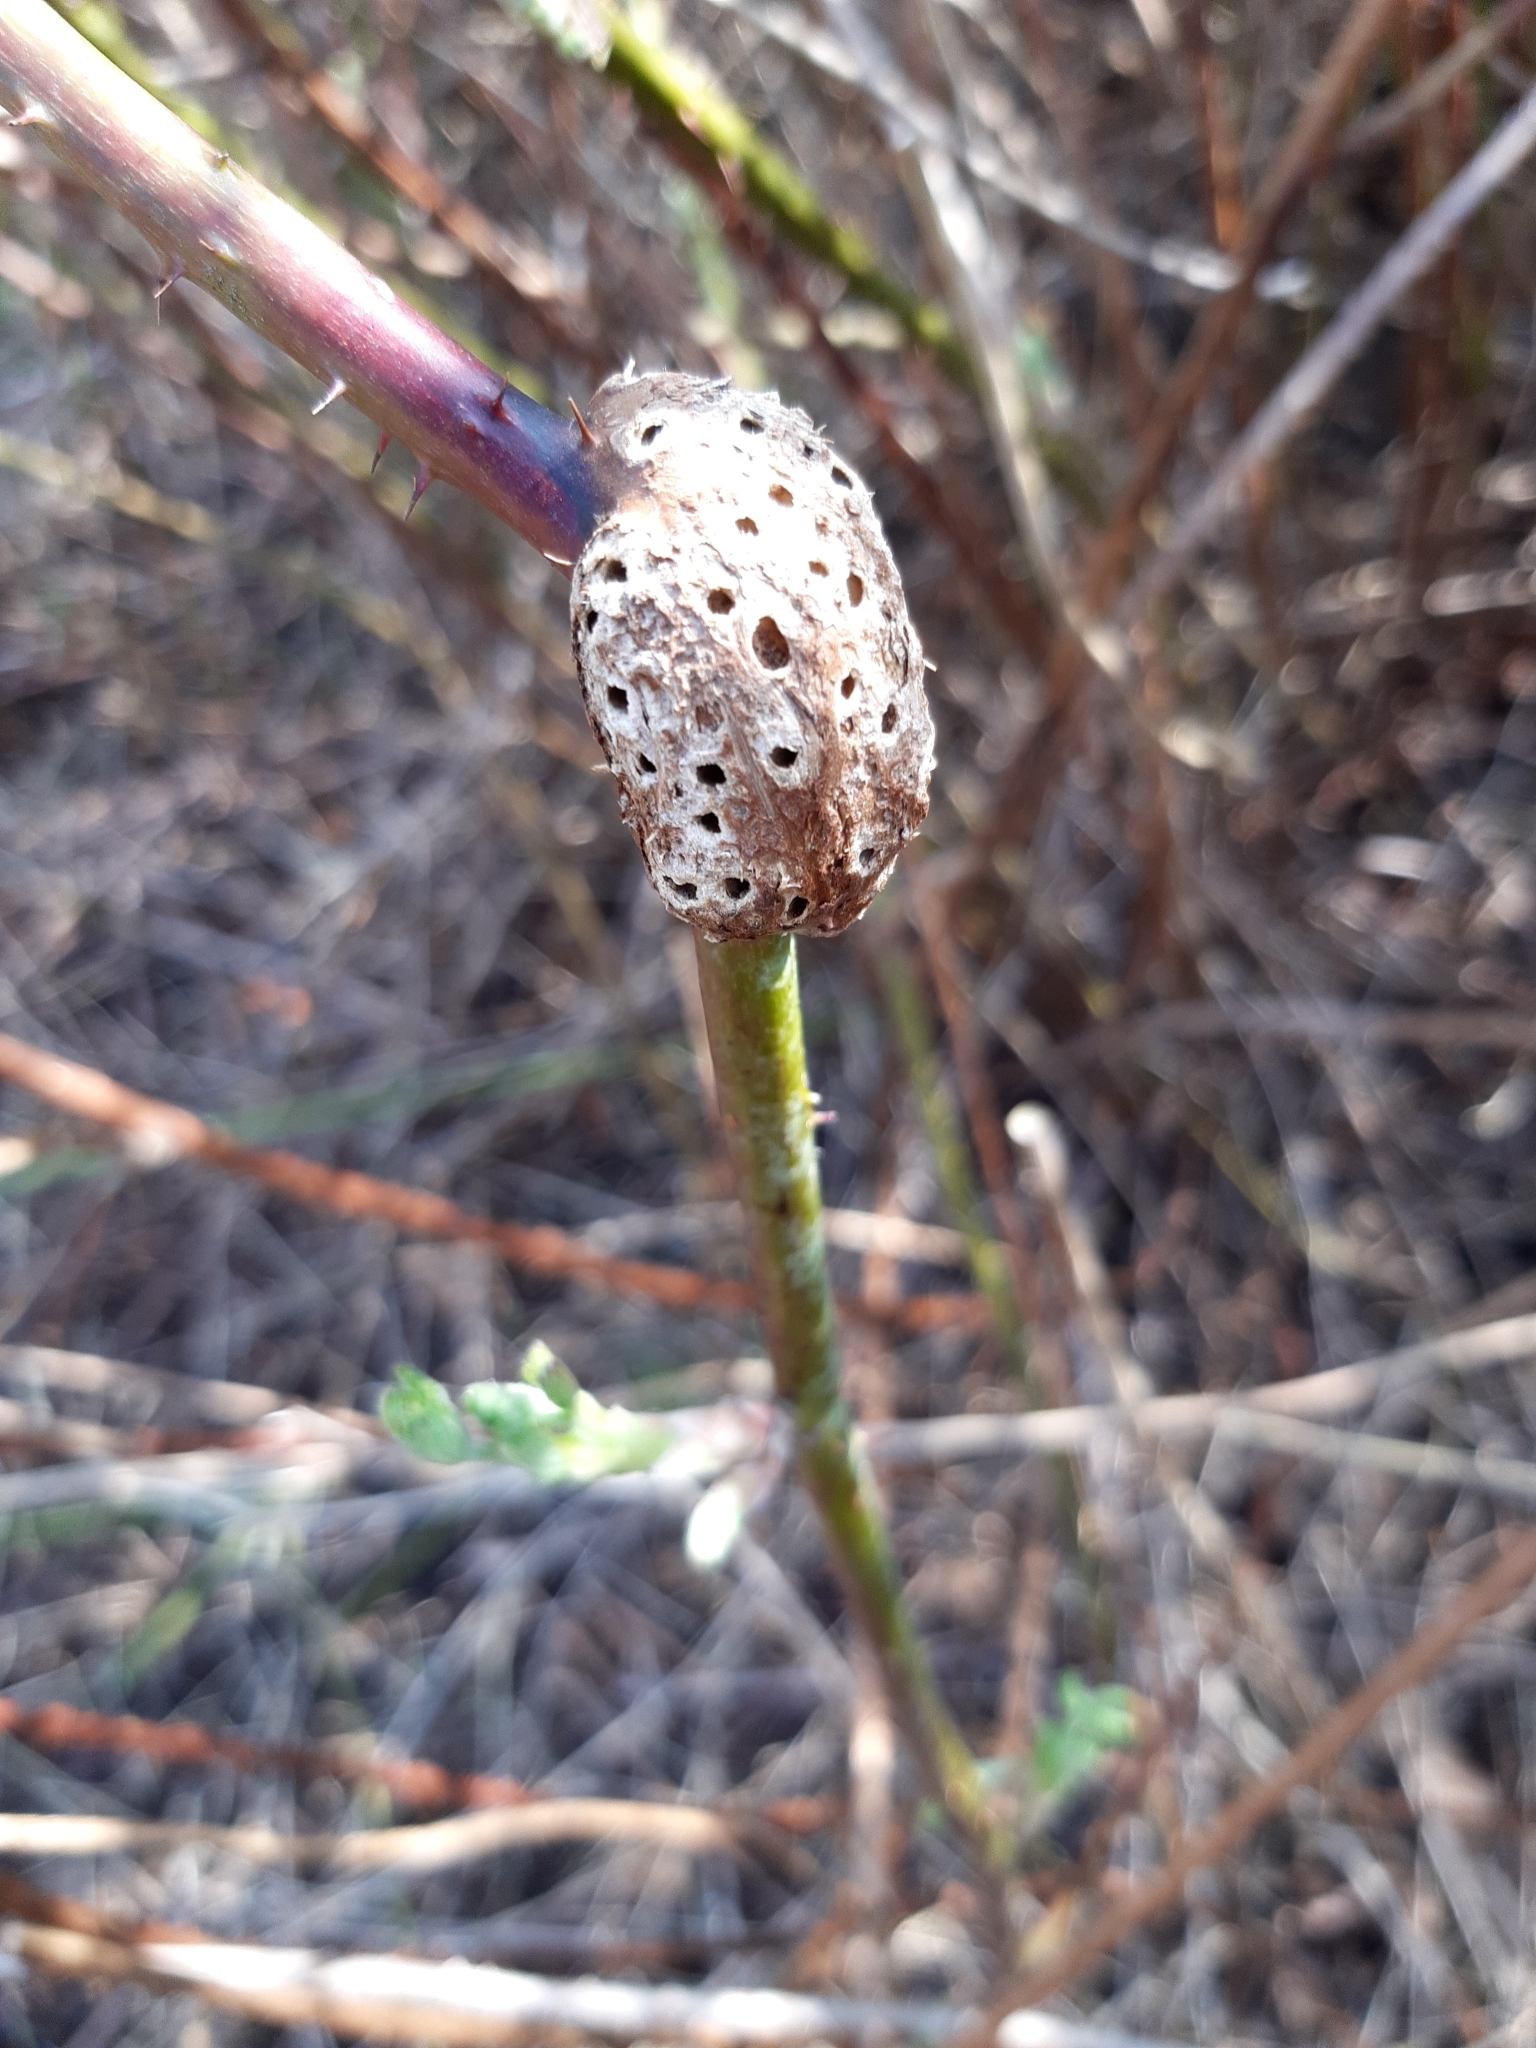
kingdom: Animalia
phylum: Arthropoda
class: Insecta
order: Hymenoptera
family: Cynipidae
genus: Diastrophus
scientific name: Diastrophus rubi
